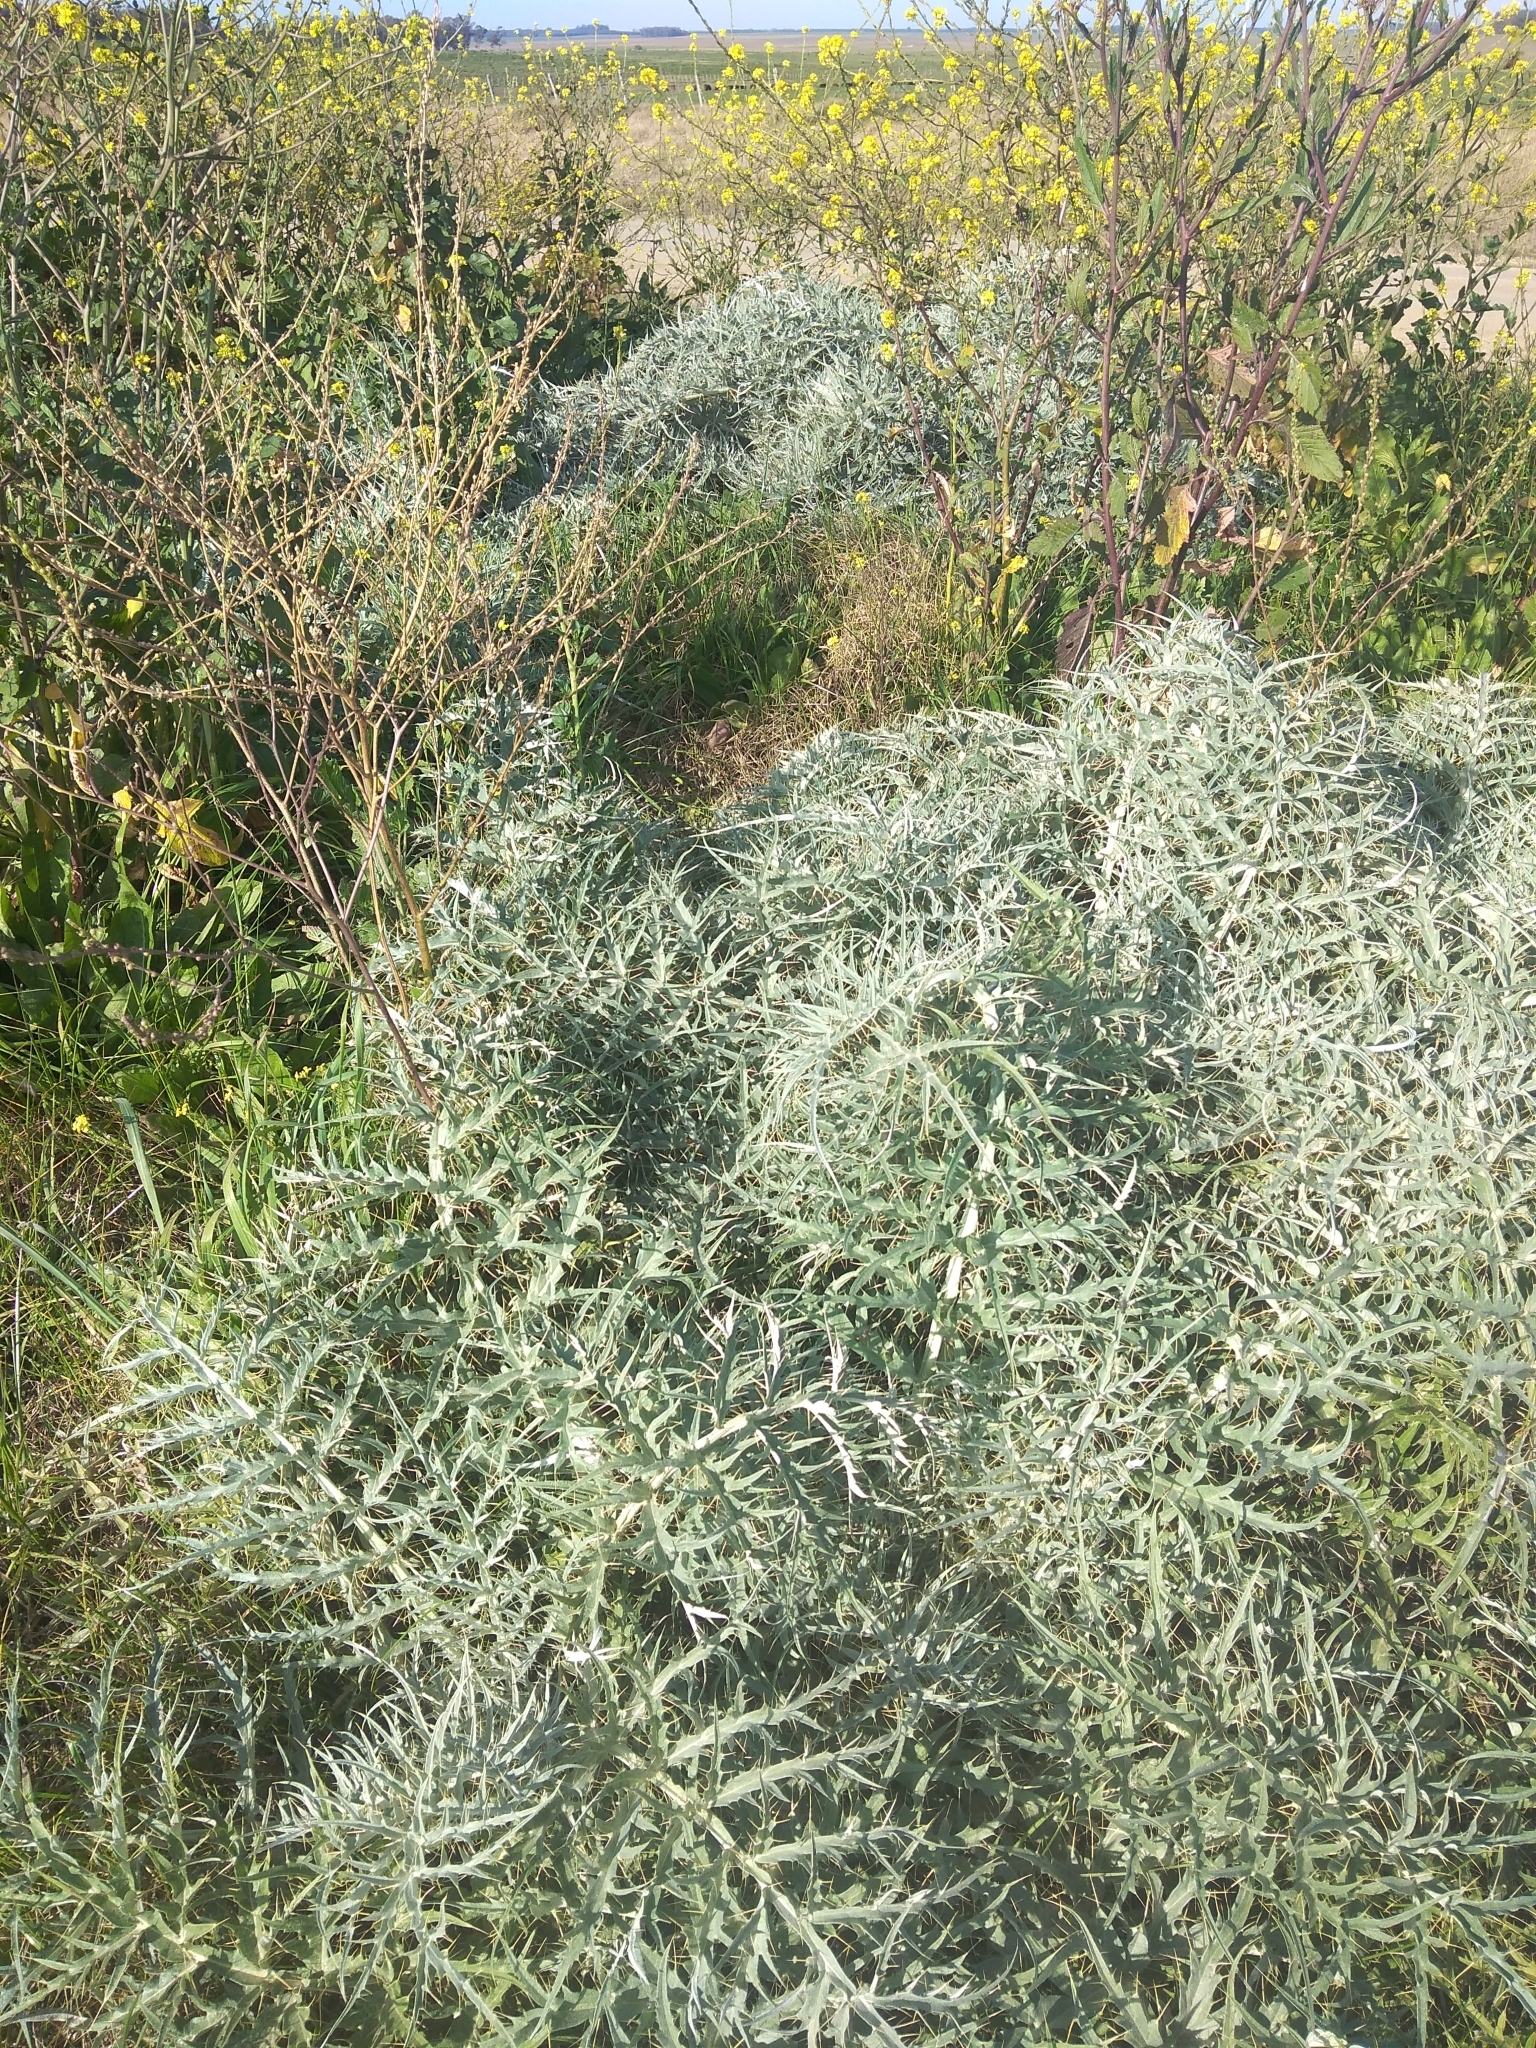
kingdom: Plantae
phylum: Tracheophyta
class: Magnoliopsida
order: Asterales
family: Asteraceae
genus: Cynara
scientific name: Cynara cardunculus
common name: Globe artichoke
